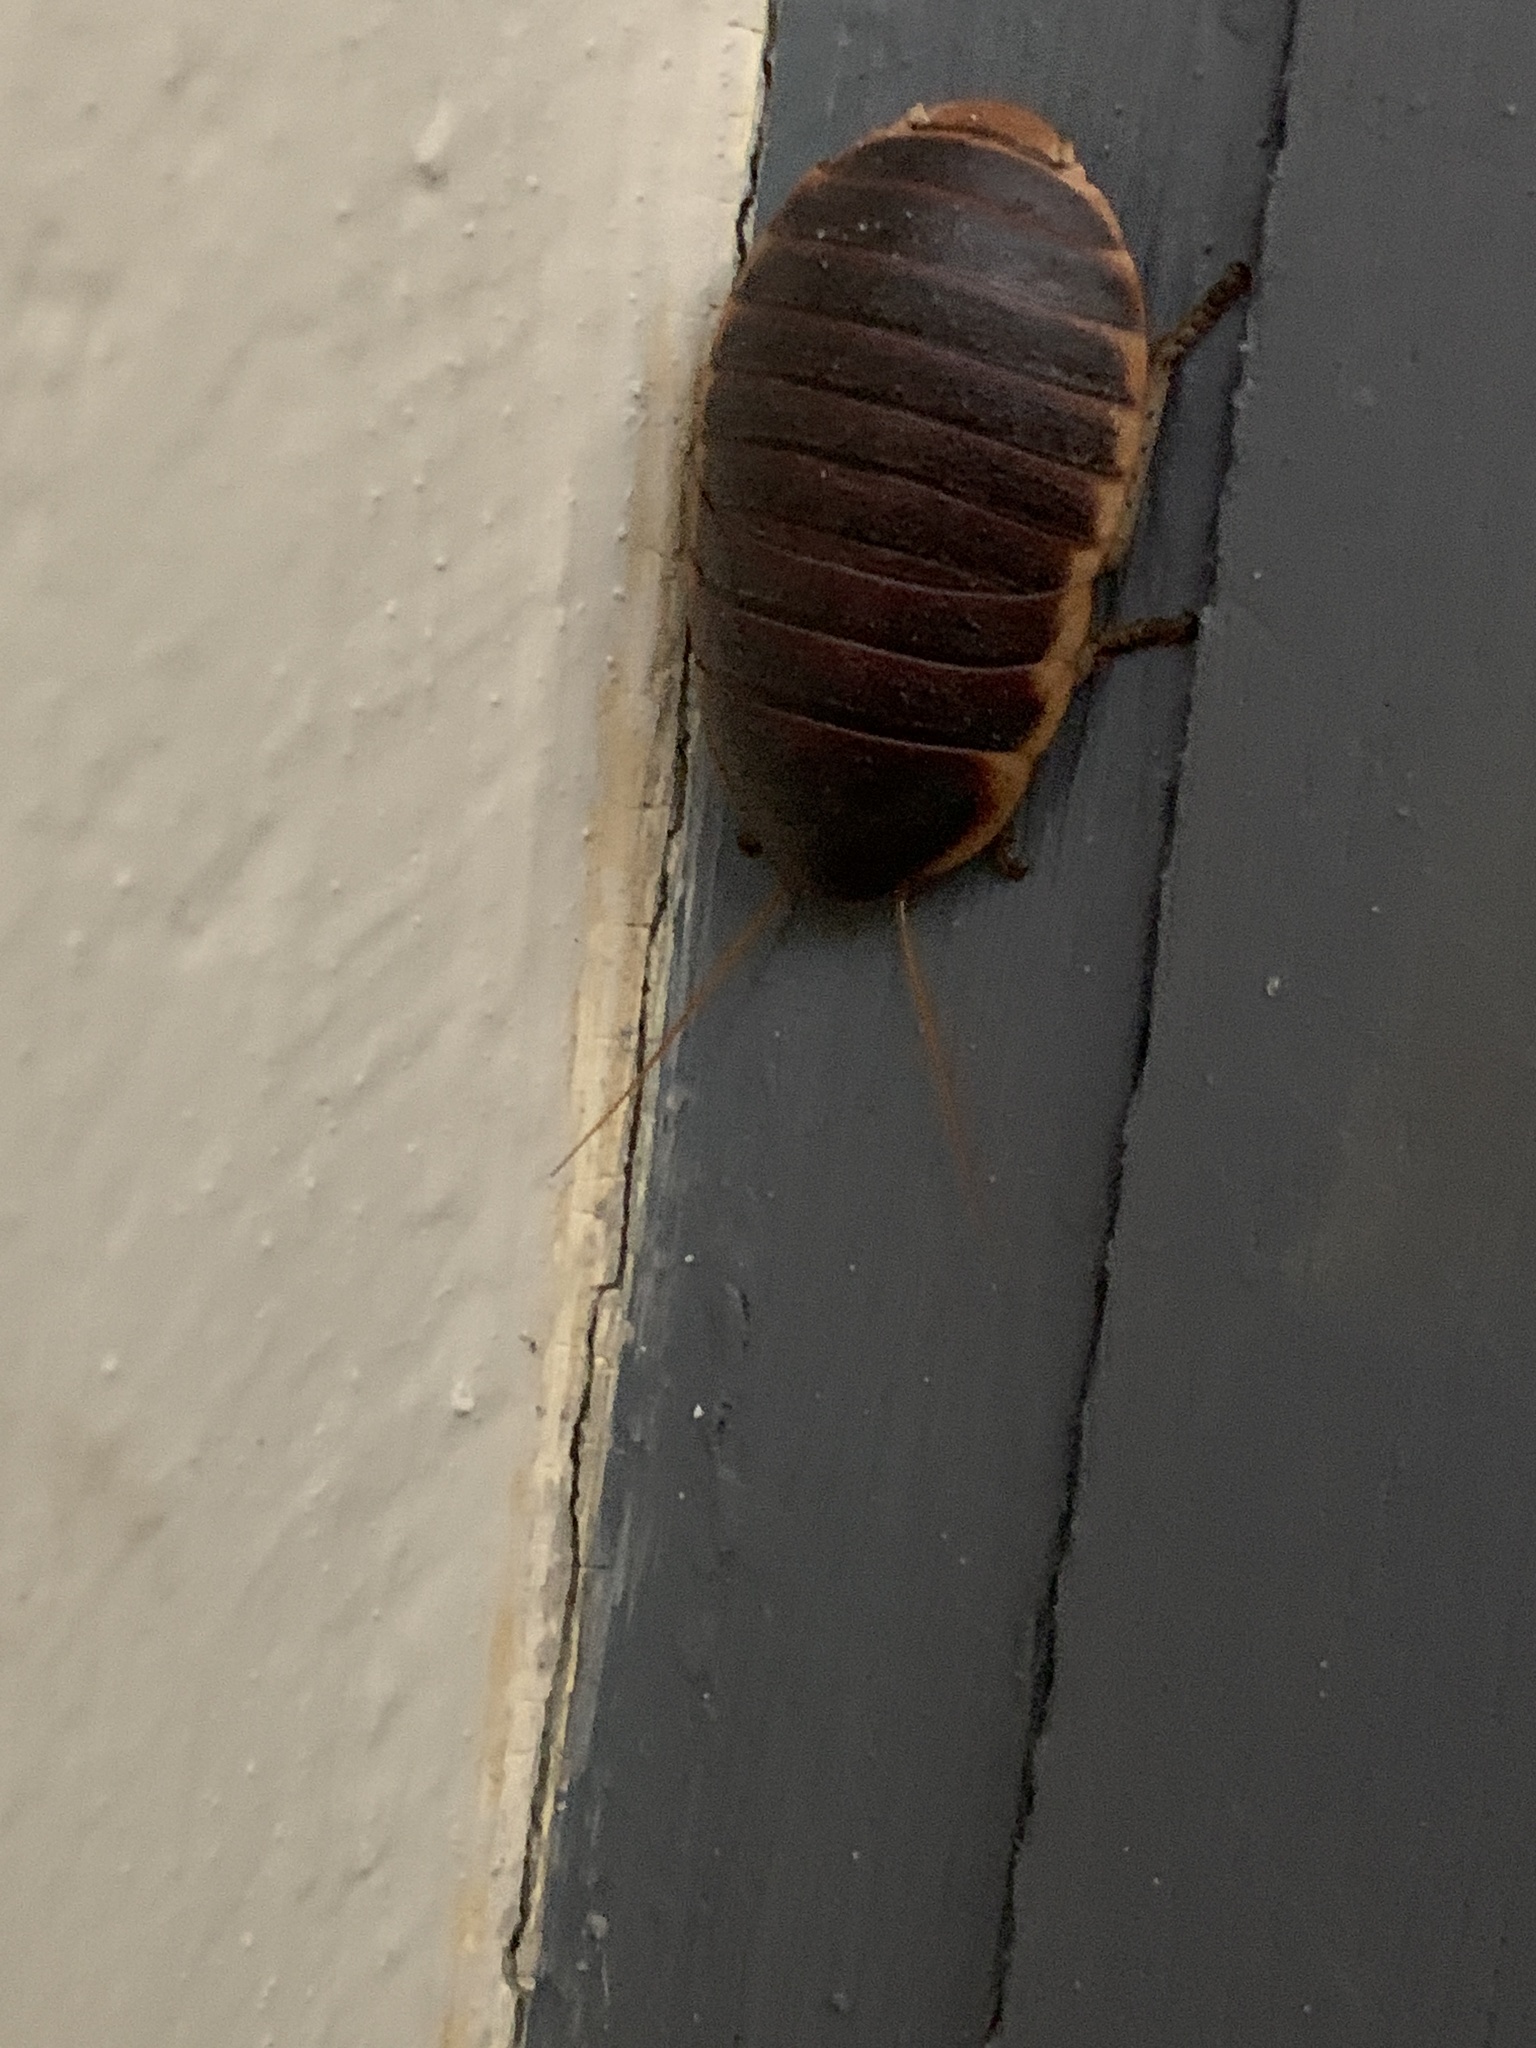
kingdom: Animalia
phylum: Arthropoda
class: Insecta
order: Blattodea
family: Blaberidae
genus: Aptera
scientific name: Aptera fusca
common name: Cape mountain cockroach
